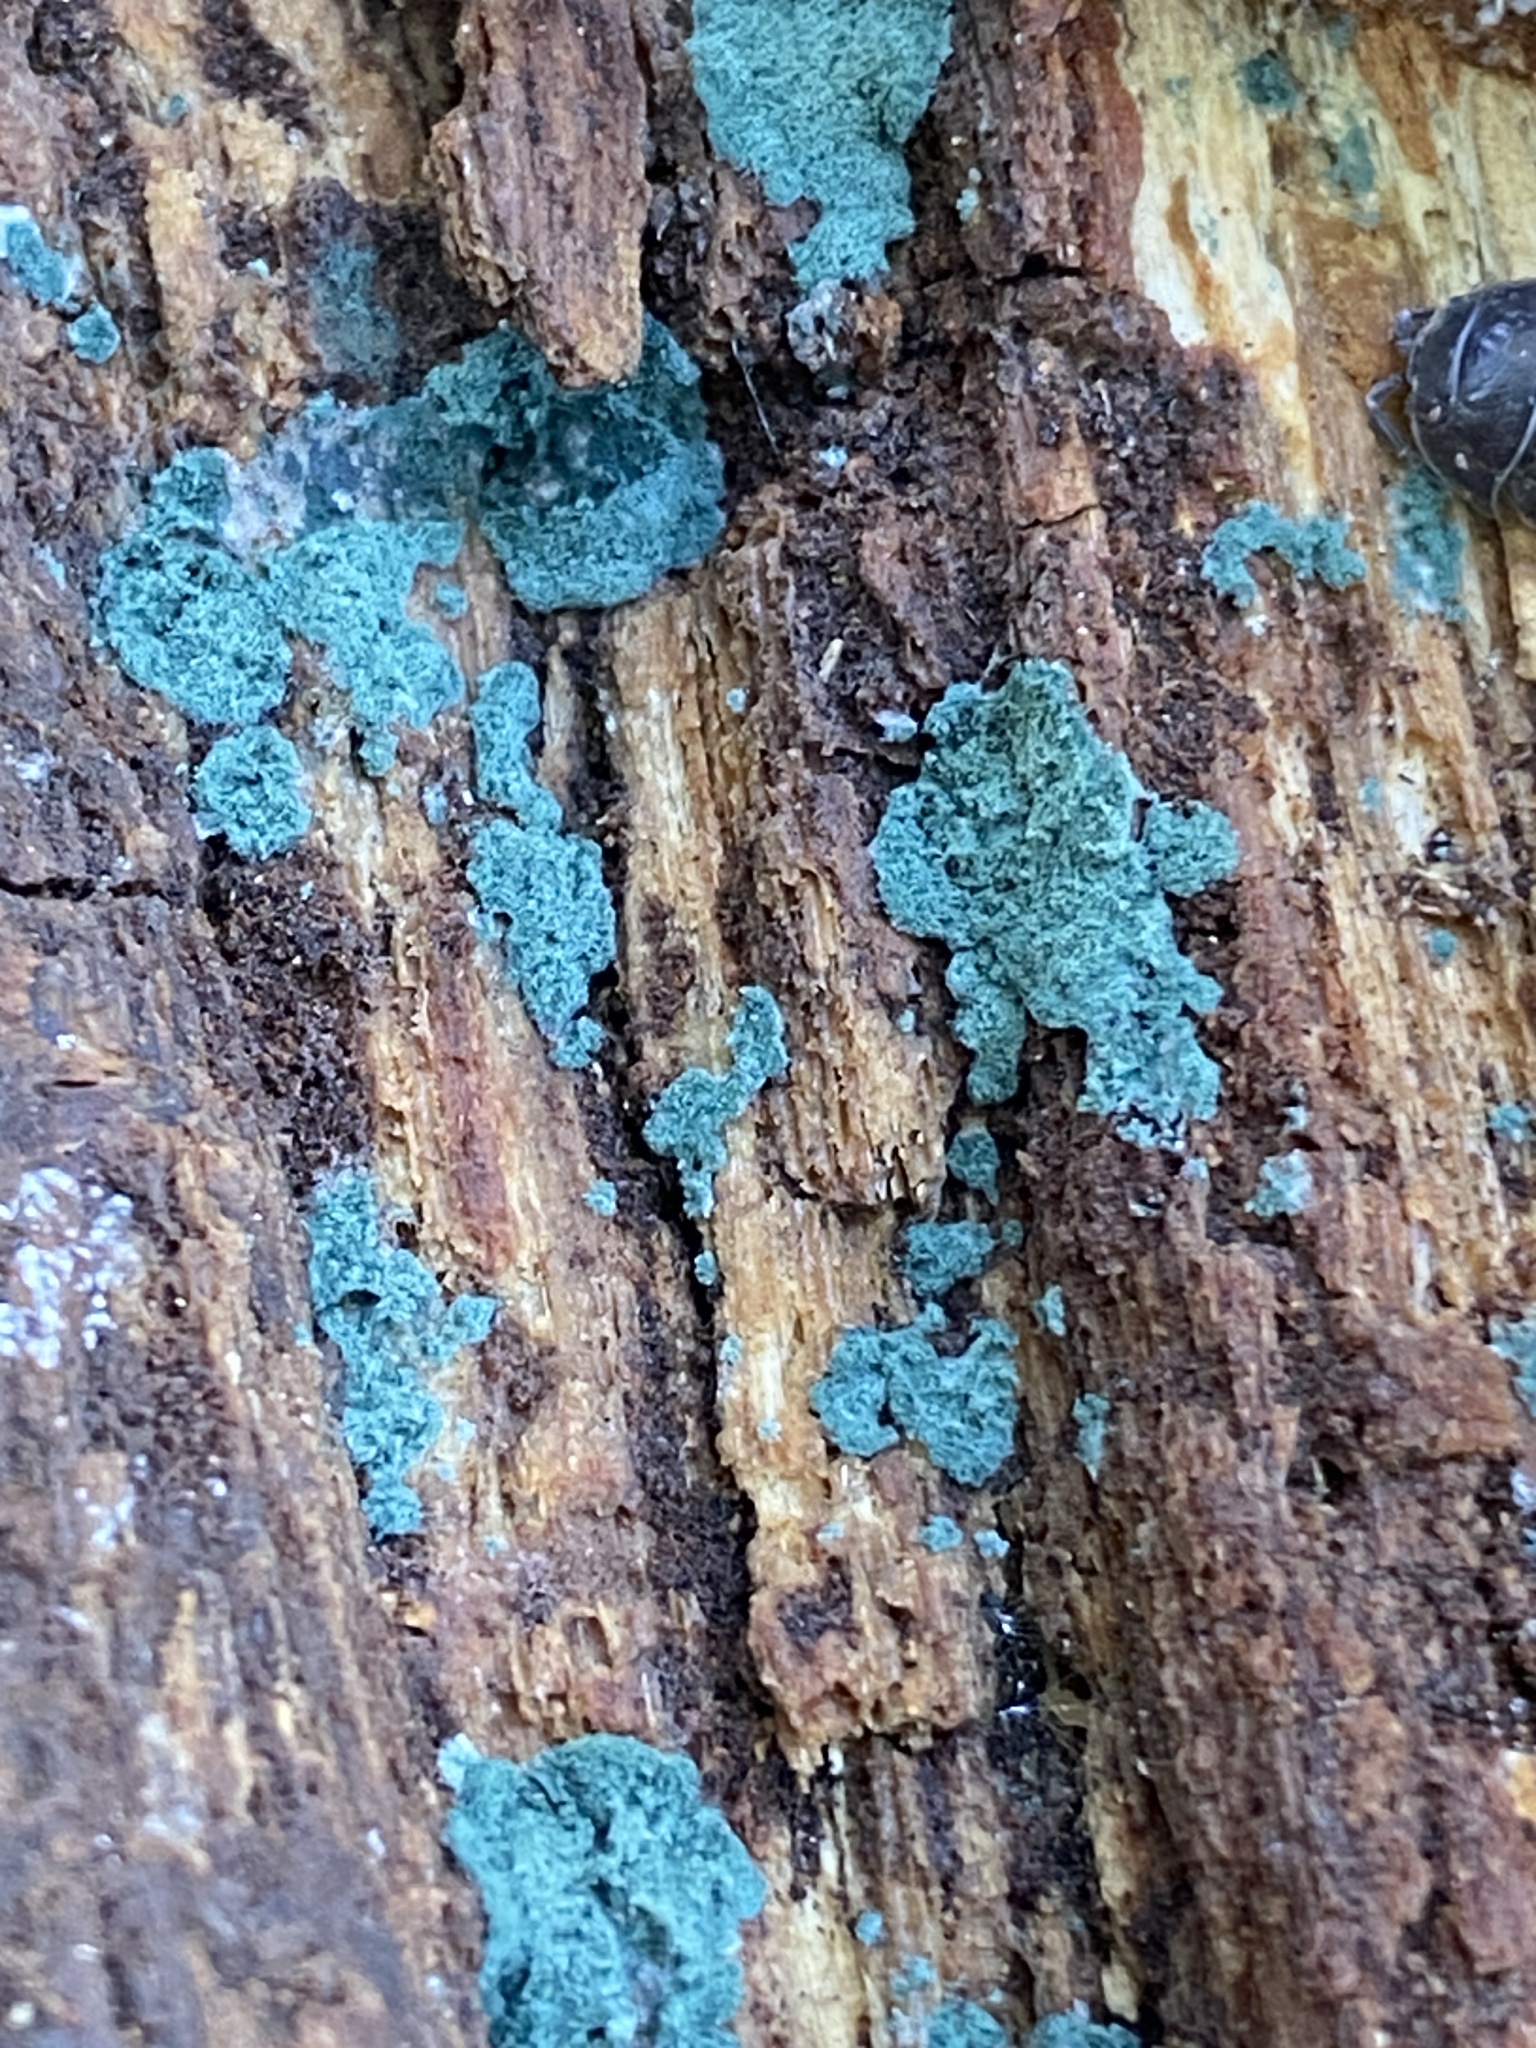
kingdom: Fungi
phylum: Ascomycota
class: Sordariomycetes
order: Hypocreales
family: Hypocreaceae
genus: Trichoderma
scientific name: Trichoderma viride
